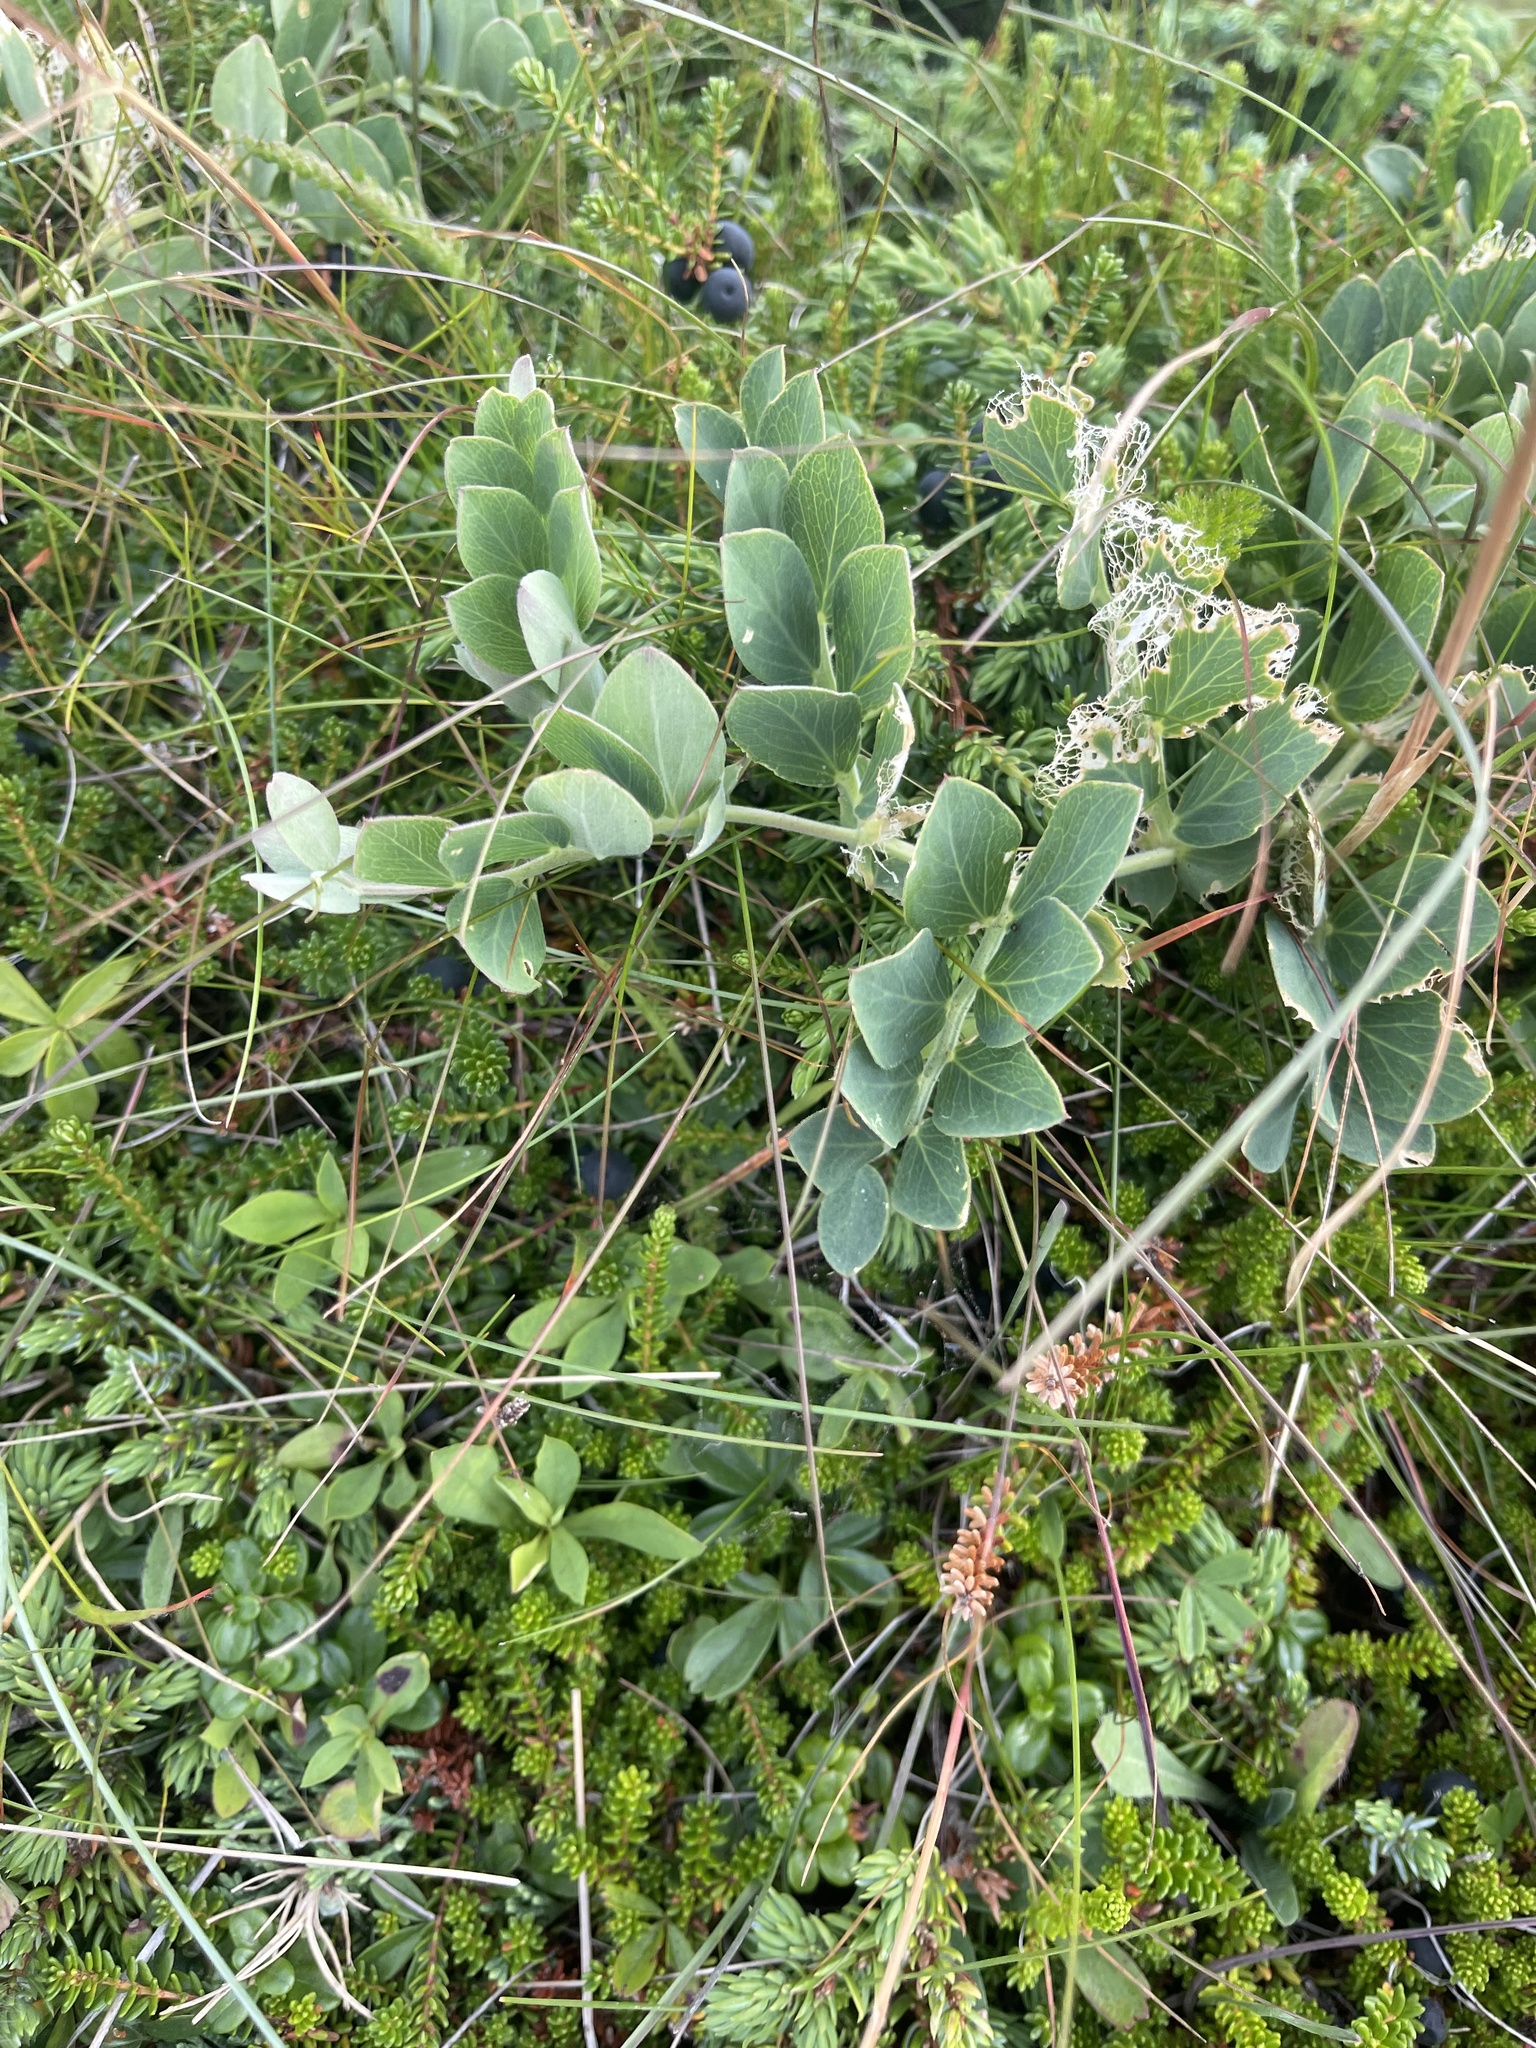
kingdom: Plantae
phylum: Tracheophyta
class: Magnoliopsida
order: Fabales
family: Fabaceae
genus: Lathyrus
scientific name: Lathyrus japonicus
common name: Sea pea
